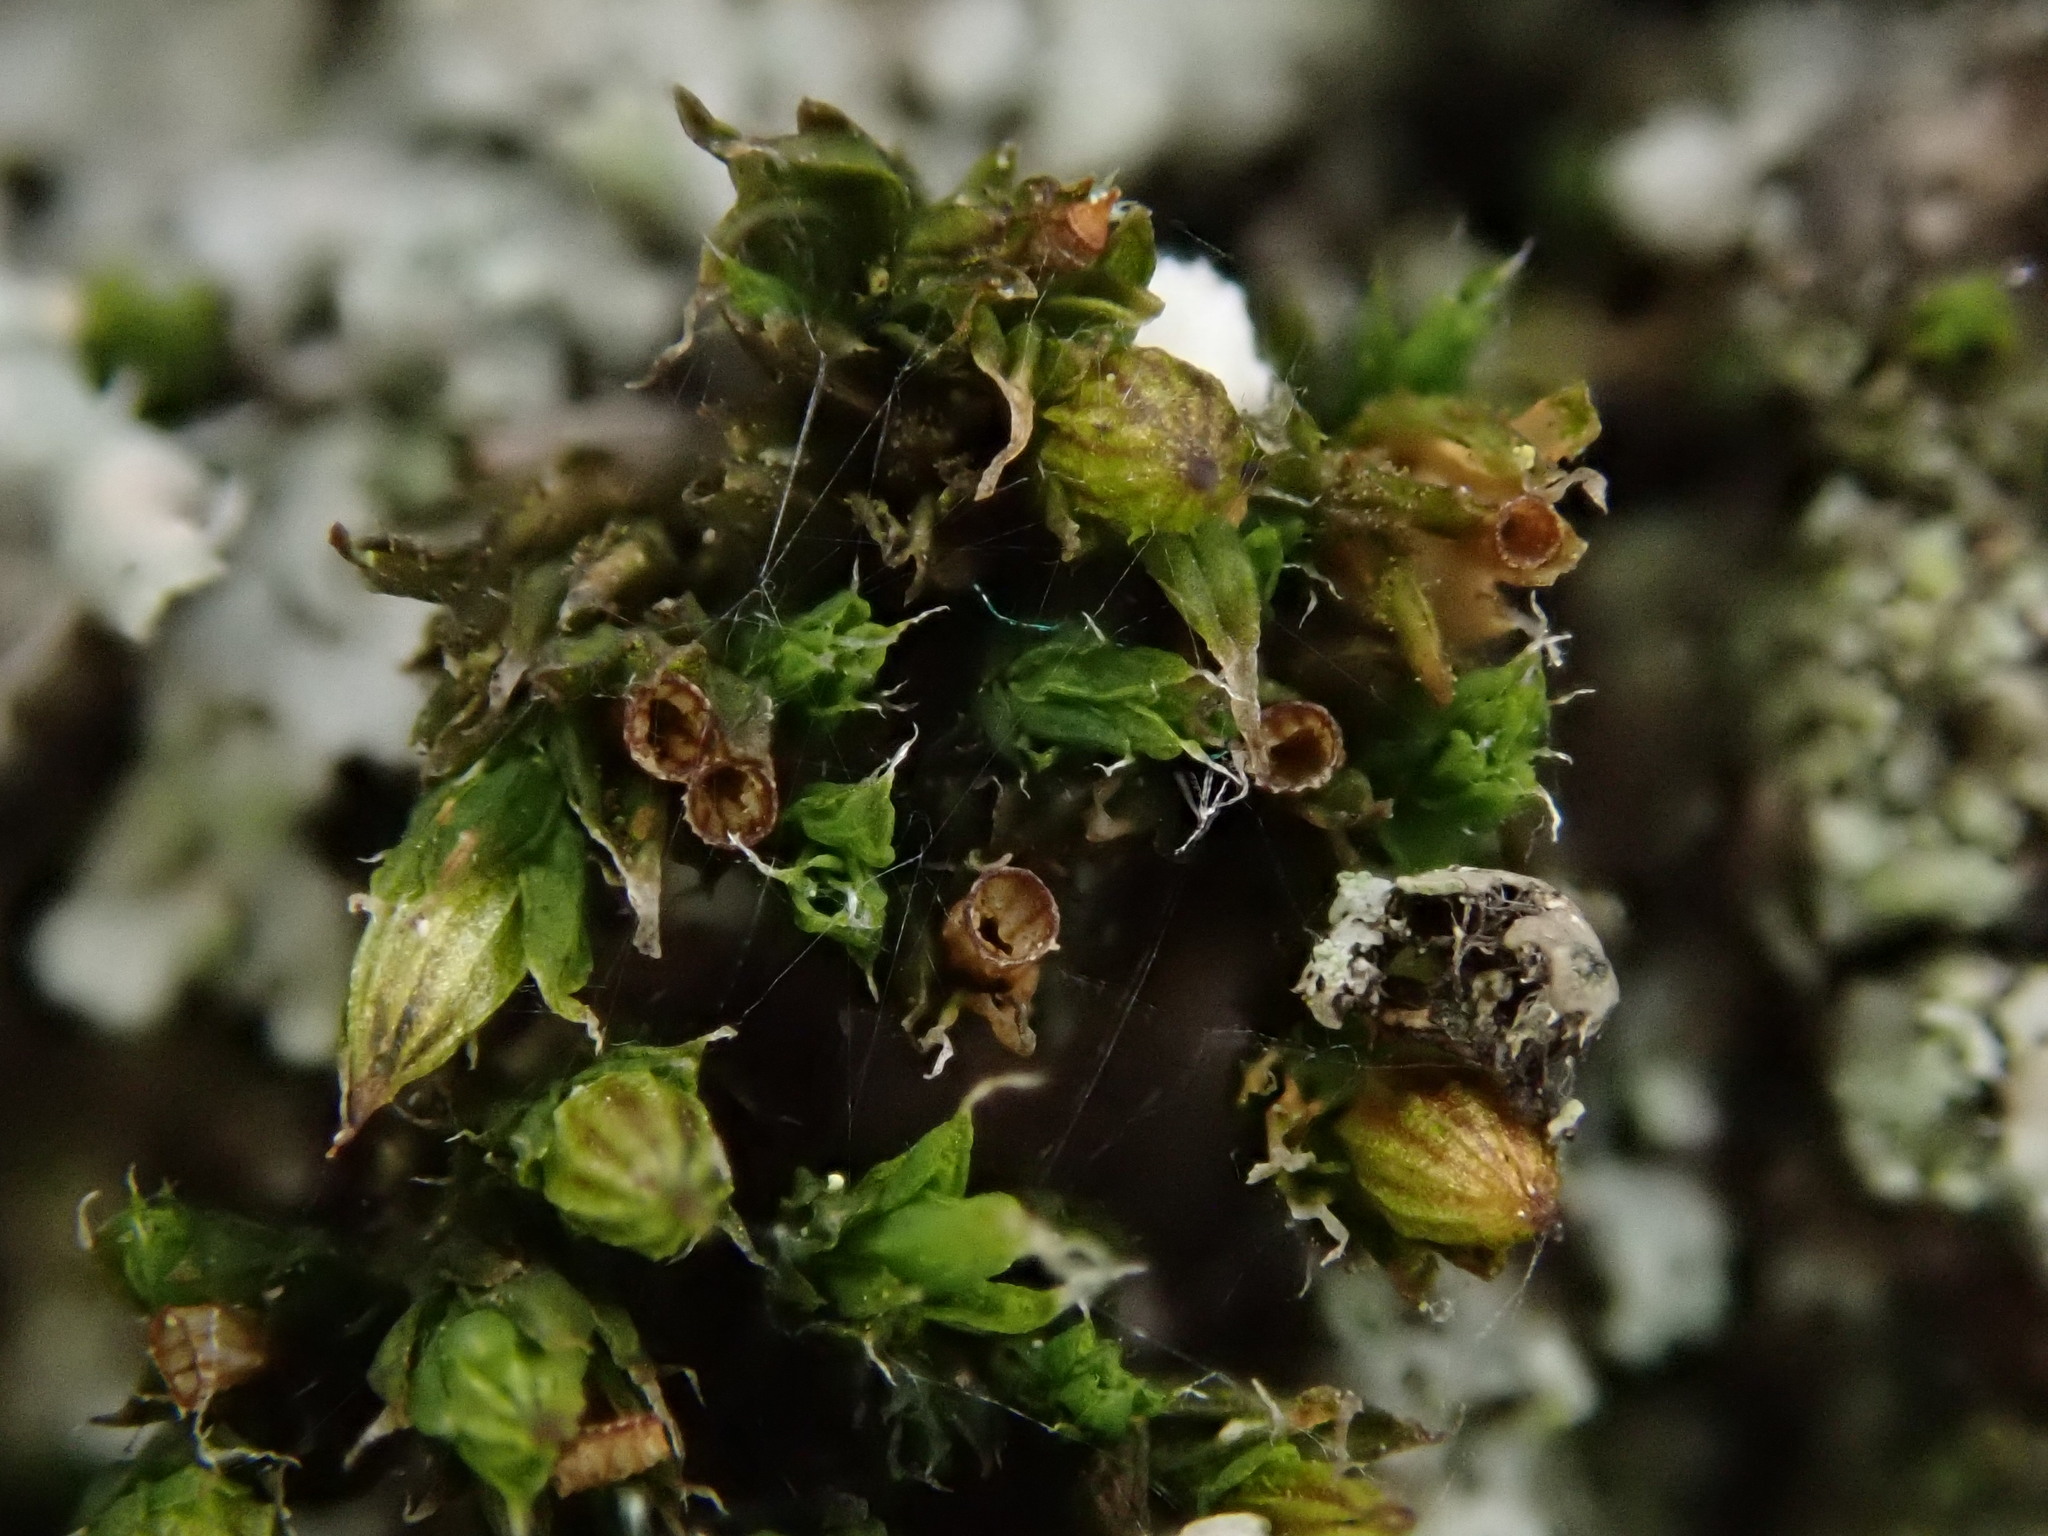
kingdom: Plantae
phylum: Bryophyta
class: Bryopsida
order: Orthotrichales
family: Orthotrichaceae
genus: Orthotrichum
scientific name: Orthotrichum diaphanum
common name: White-tipped bristle-moss
